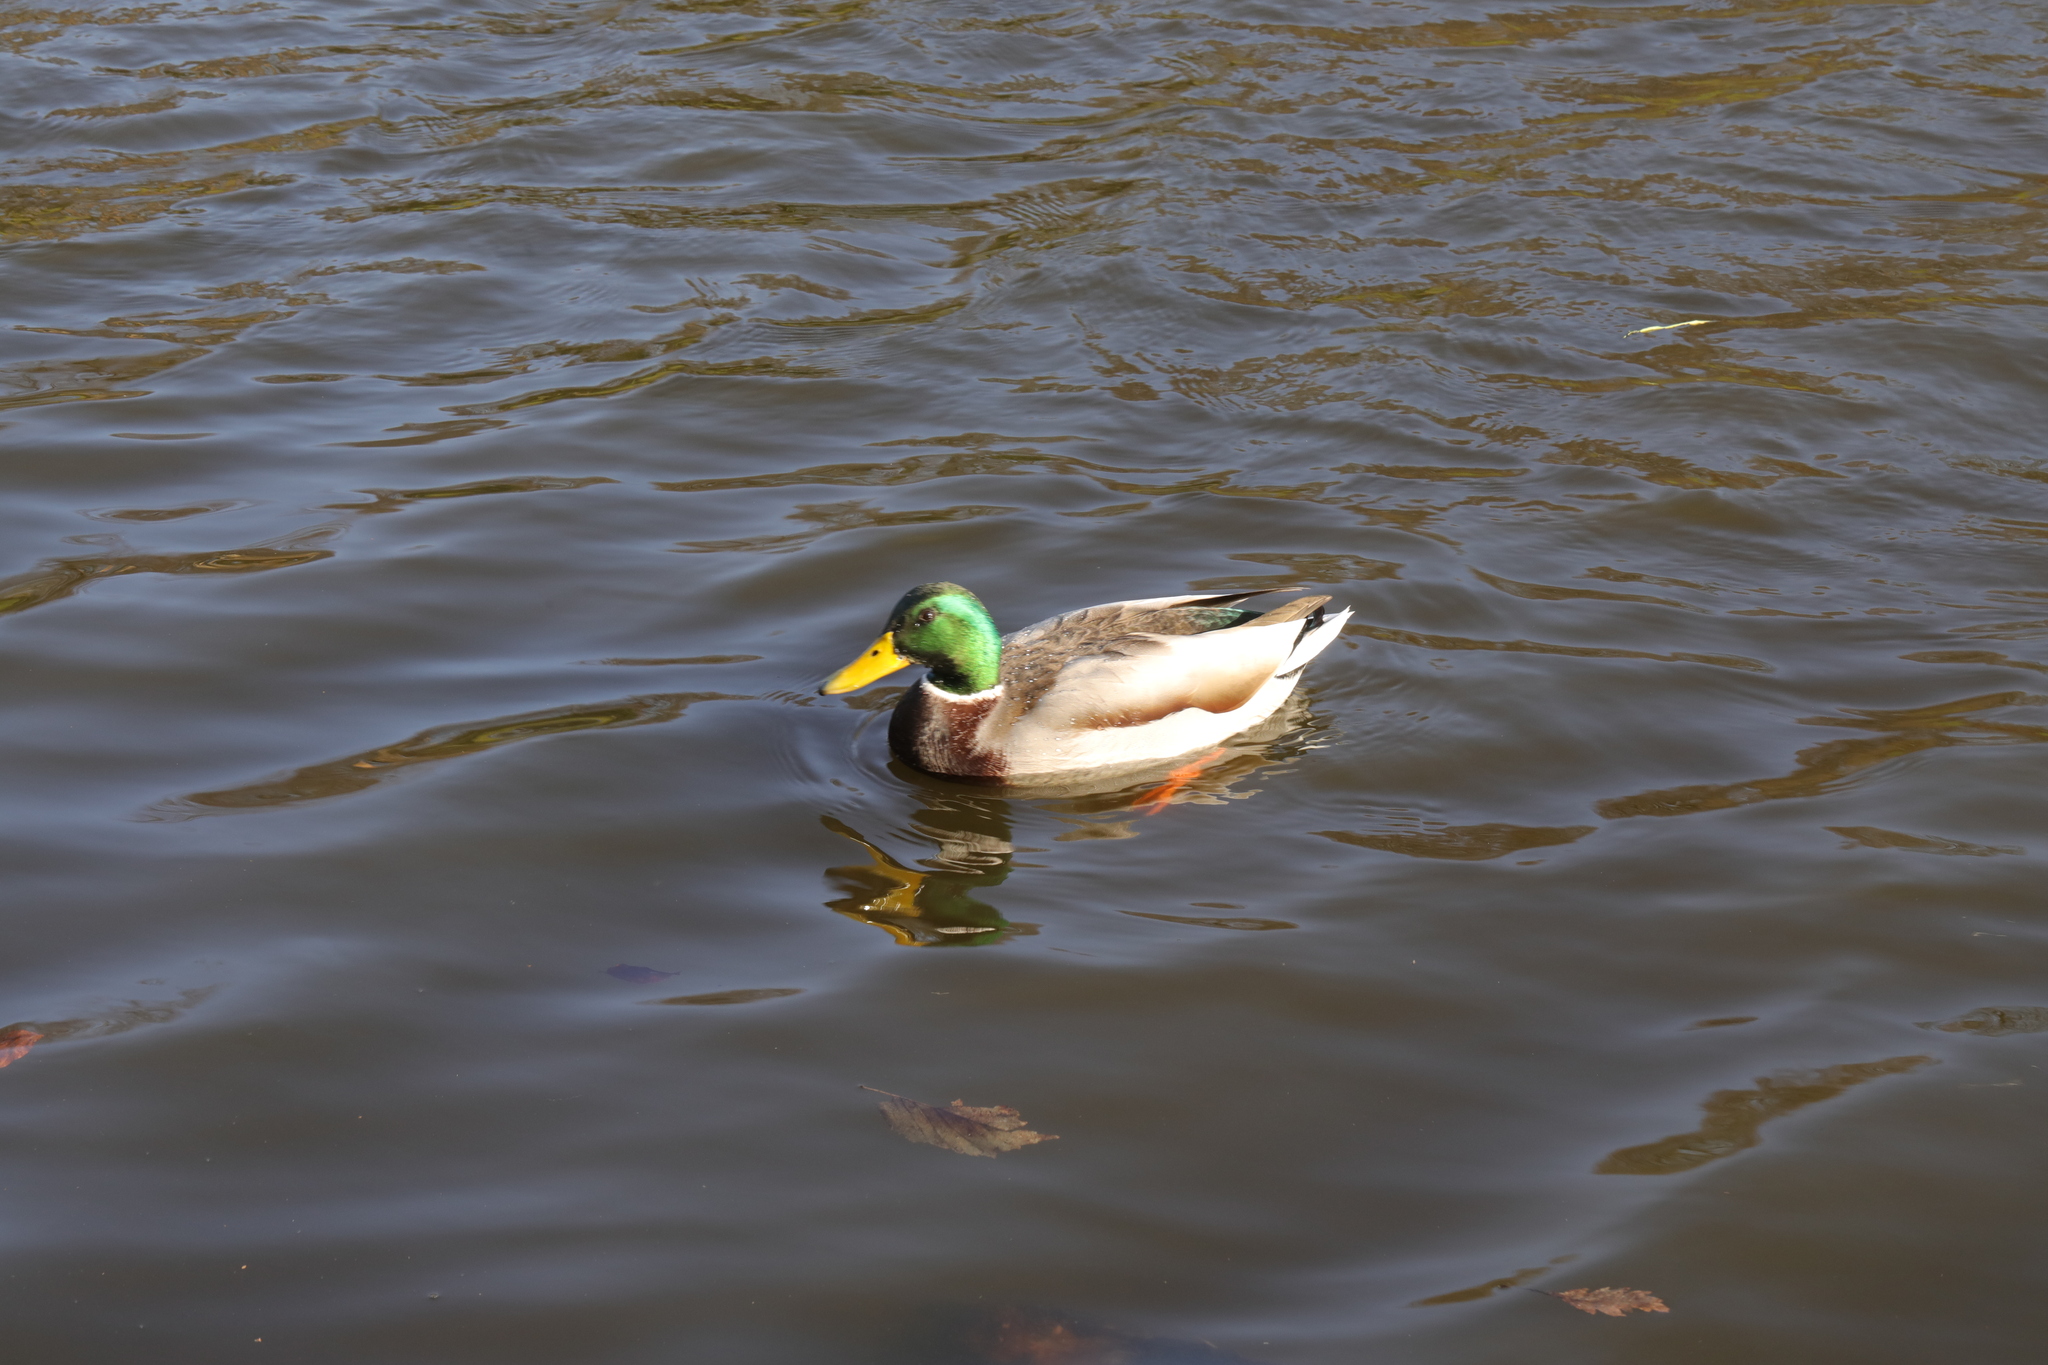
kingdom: Animalia
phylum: Chordata
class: Aves
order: Anseriformes
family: Anatidae
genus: Anas
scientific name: Anas platyrhynchos
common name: Mallard
